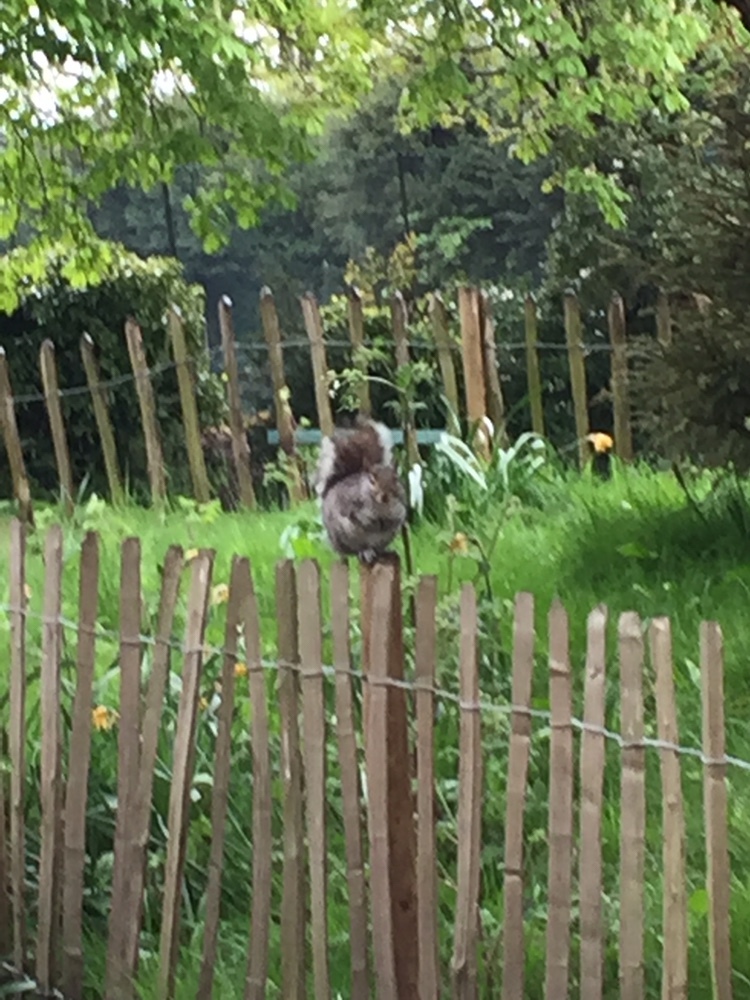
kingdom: Animalia
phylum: Chordata
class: Mammalia
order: Rodentia
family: Sciuridae
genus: Sciurus
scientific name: Sciurus carolinensis
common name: Eastern gray squirrel
